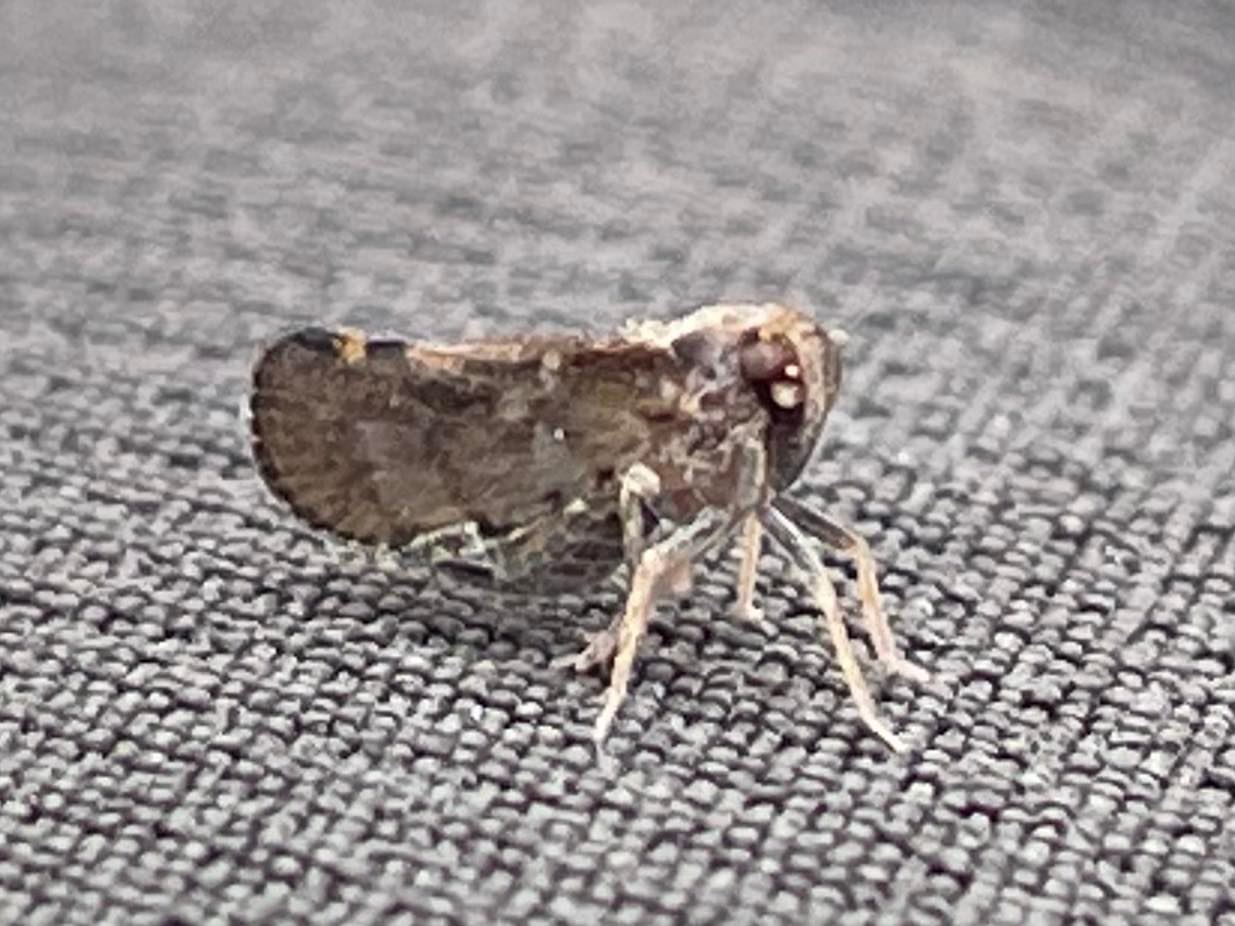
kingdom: Animalia
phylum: Arthropoda
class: Insecta
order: Hemiptera
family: Cixiidae
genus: Pintalia
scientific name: Pintalia vibex
